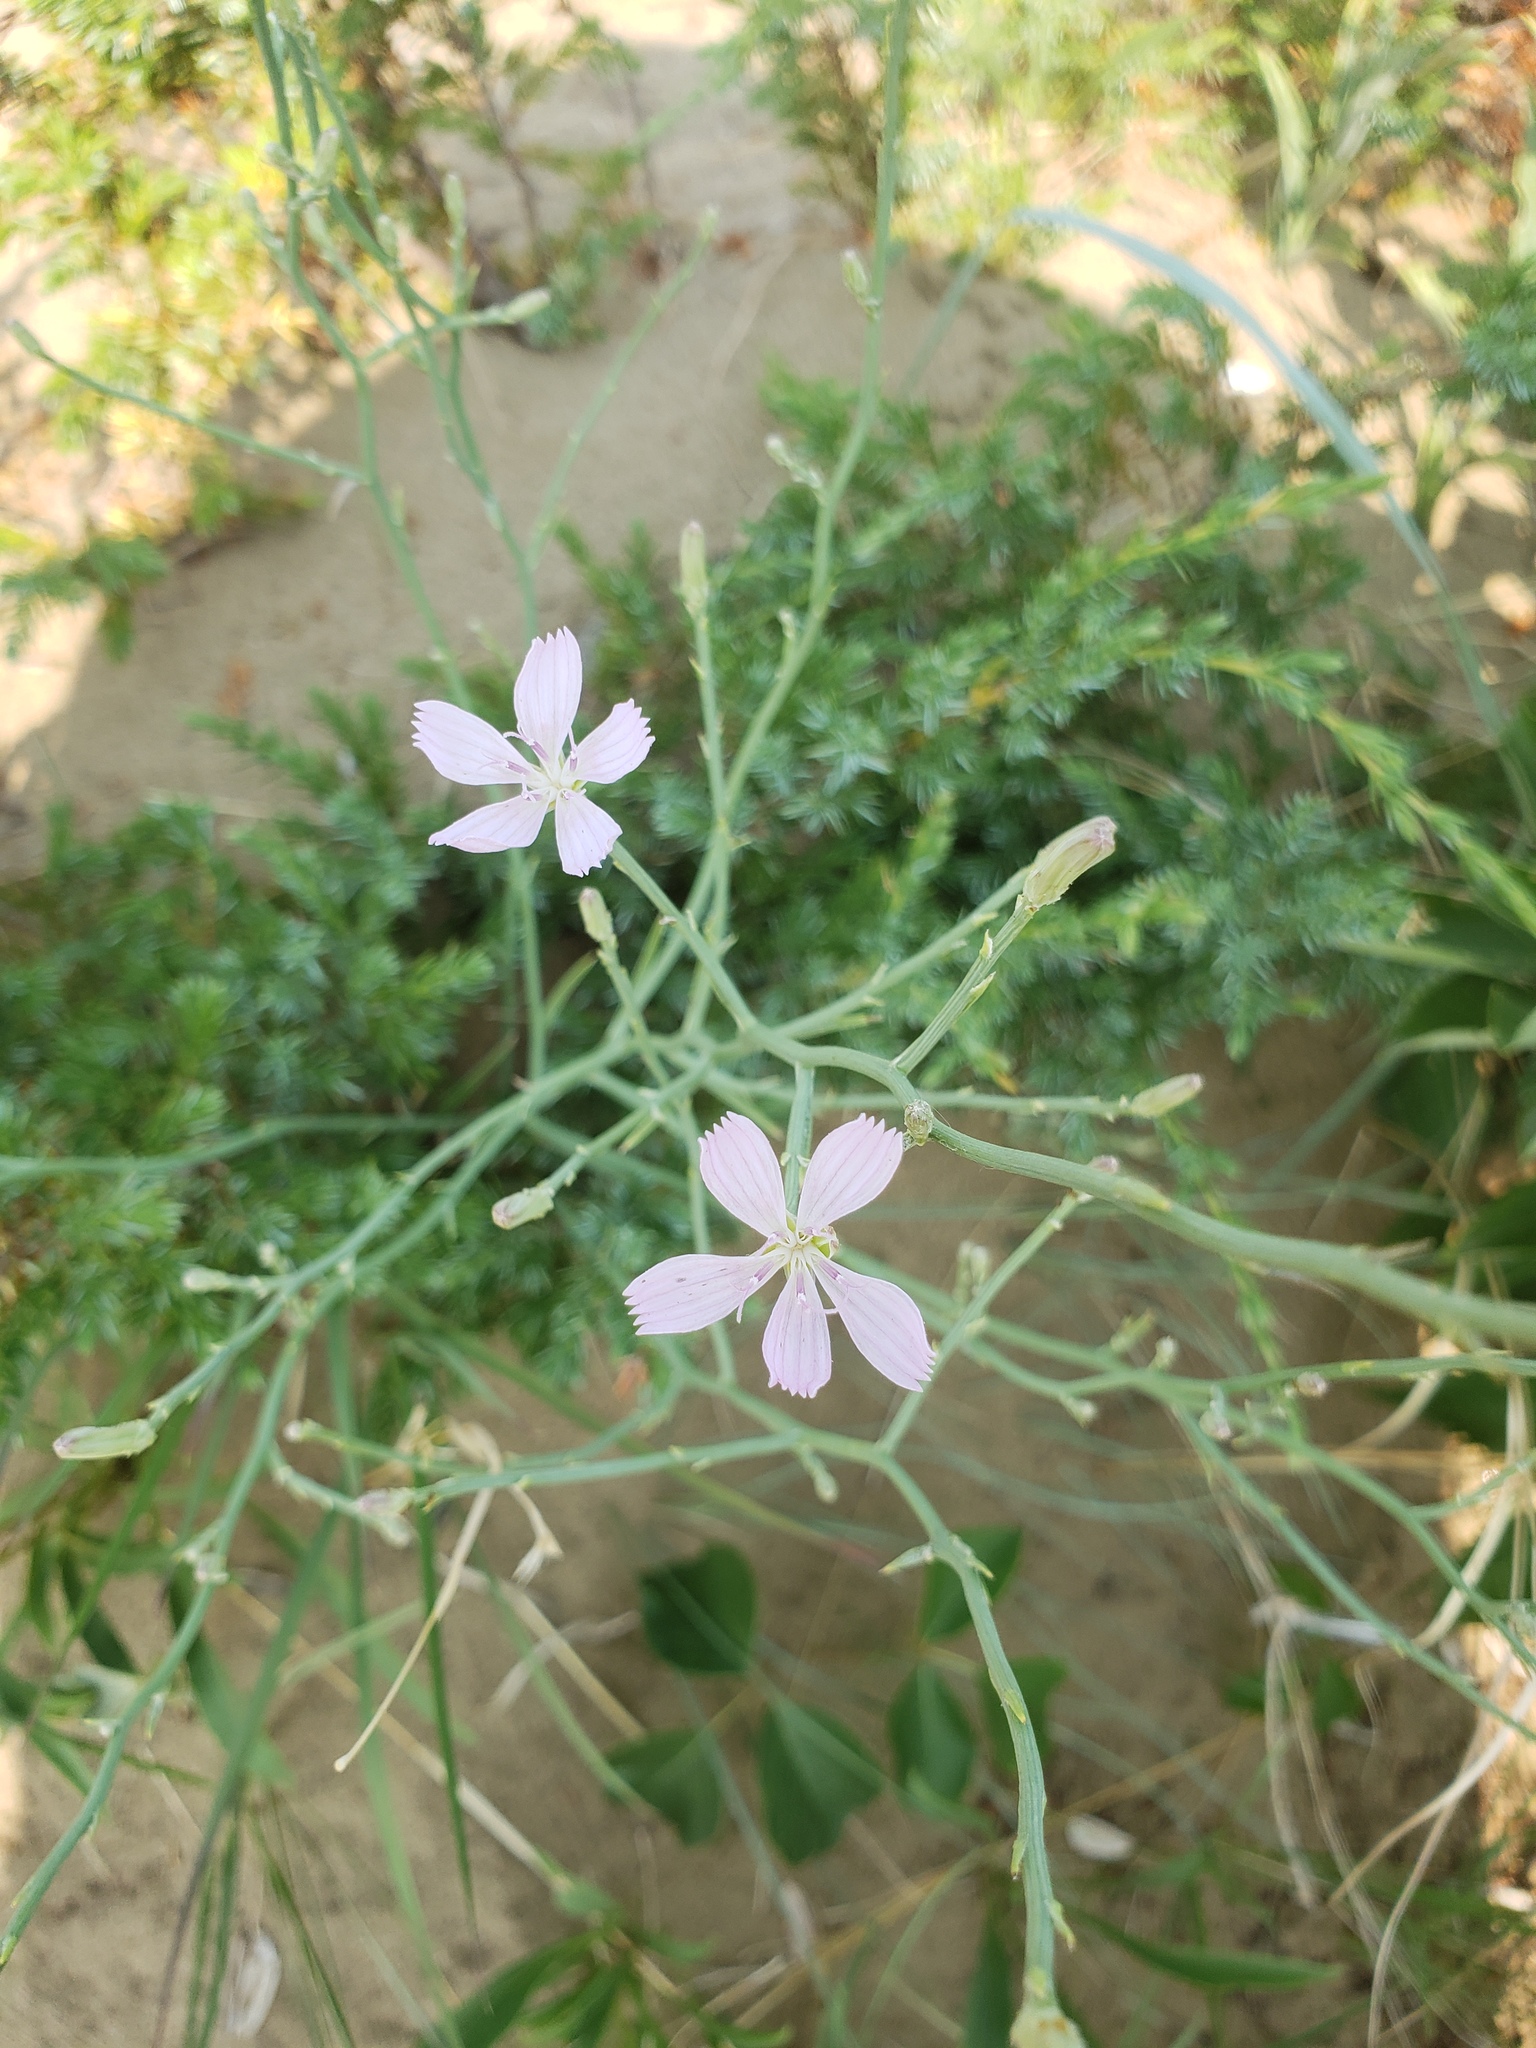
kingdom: Plantae
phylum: Tracheophyta
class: Magnoliopsida
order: Asterales
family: Asteraceae
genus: Lygodesmia
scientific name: Lygodesmia juncea
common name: Common skeletonweed
